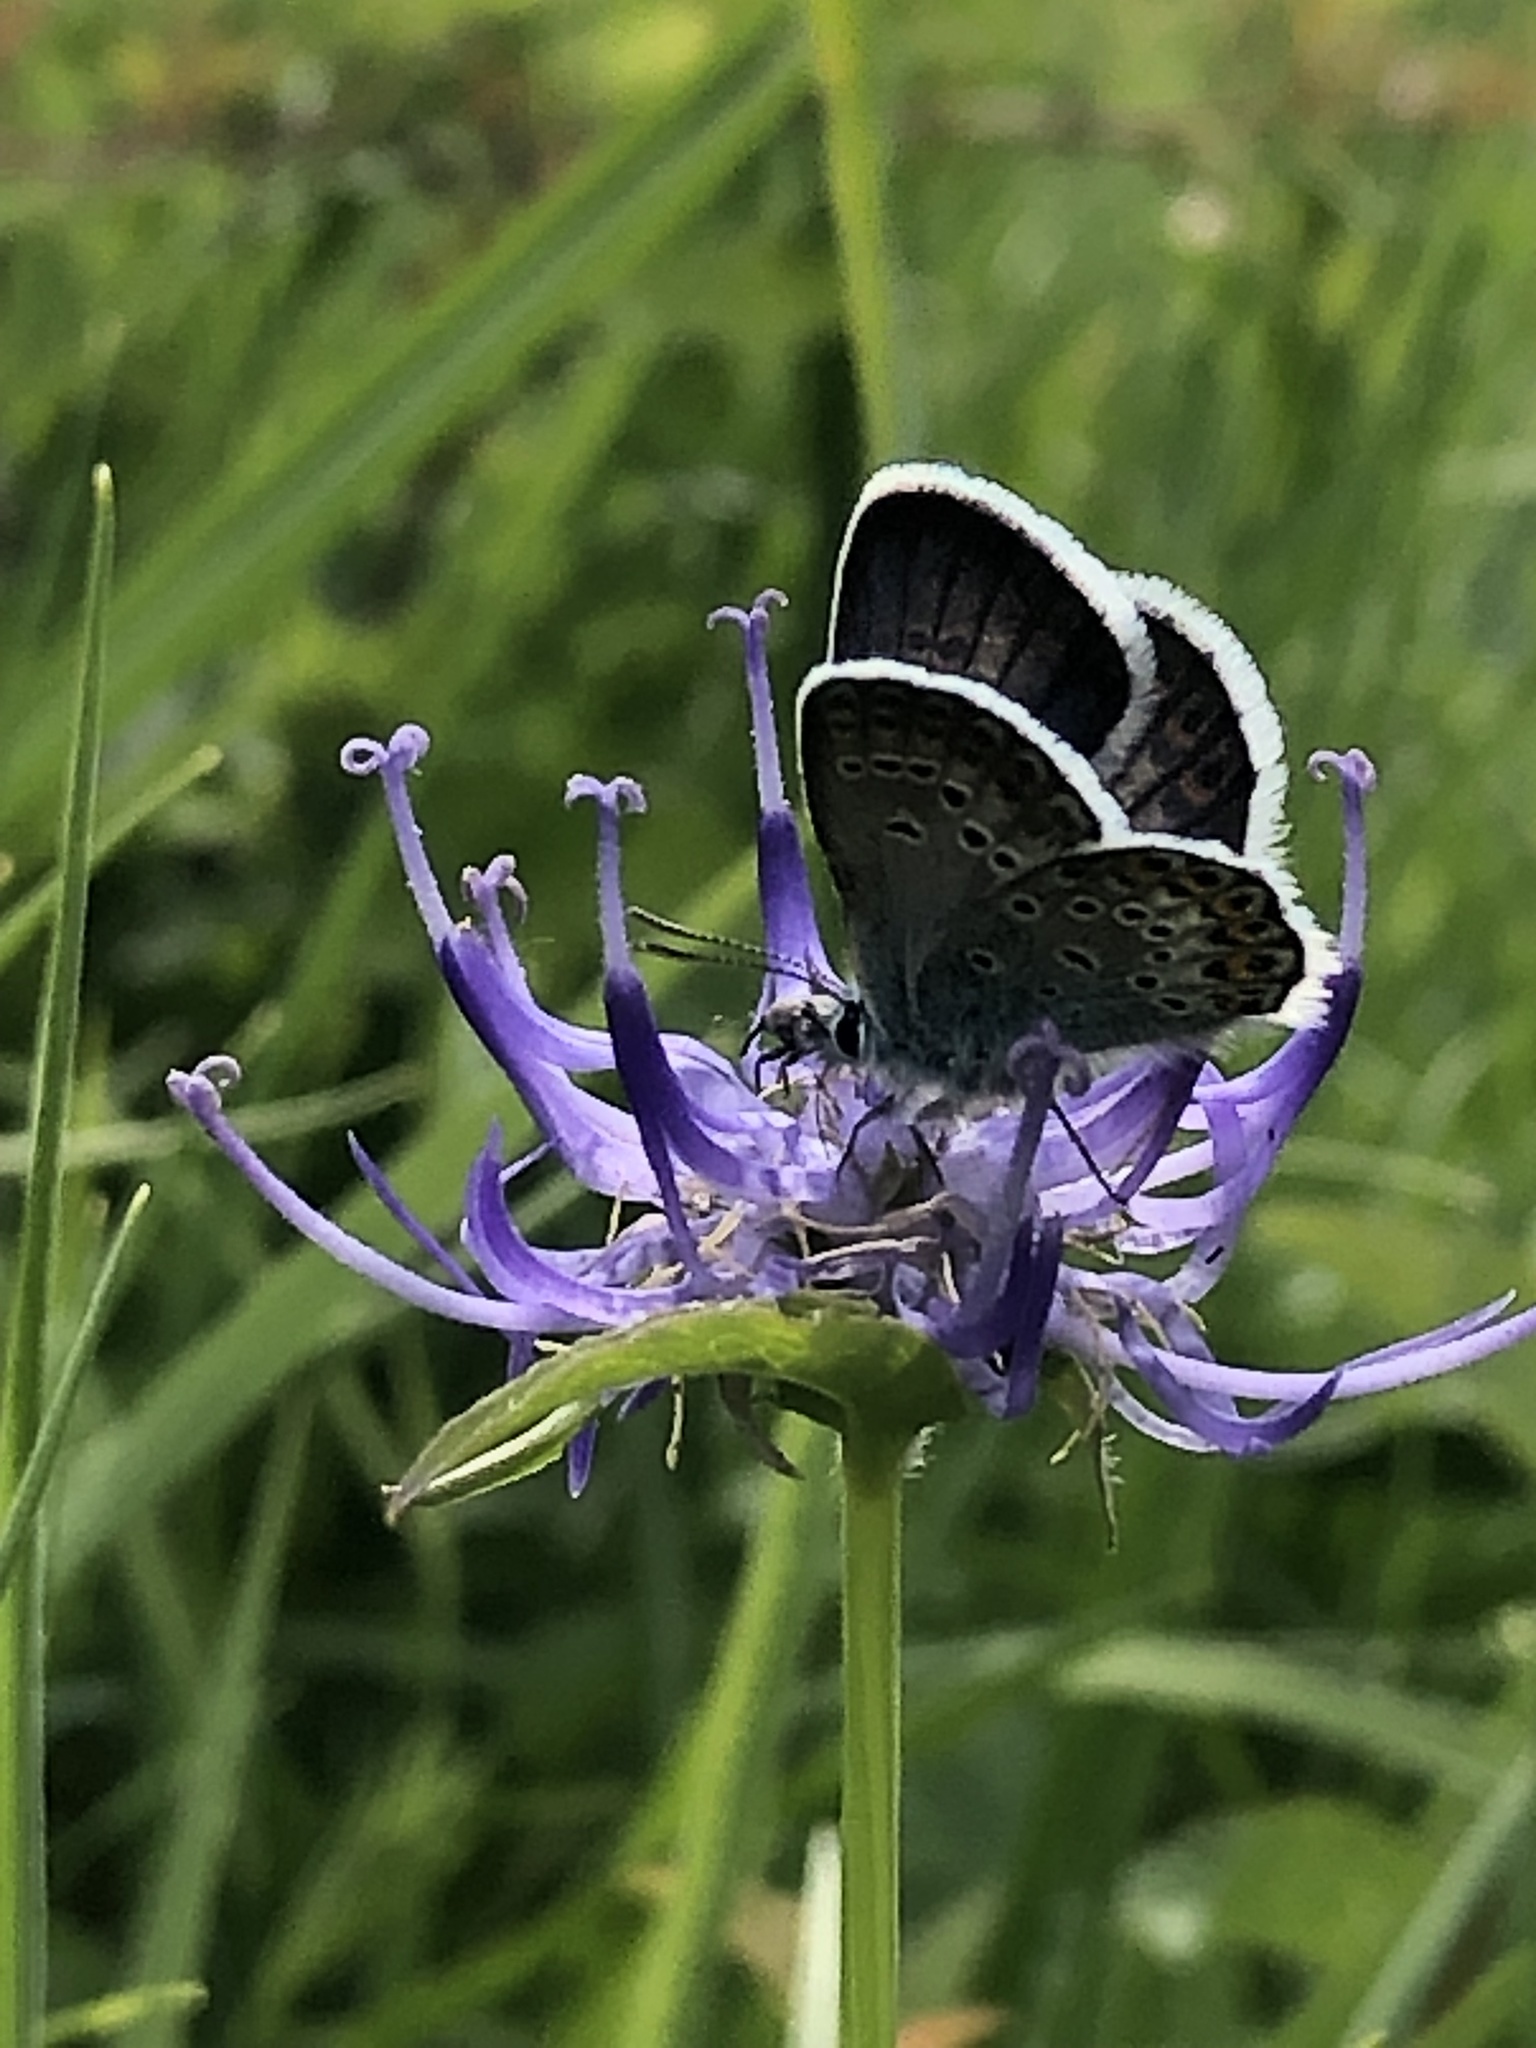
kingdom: Animalia
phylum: Arthropoda
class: Insecta
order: Lepidoptera
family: Lycaenidae
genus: Plebejus
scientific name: Plebejus argus
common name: Silver-studded blue
